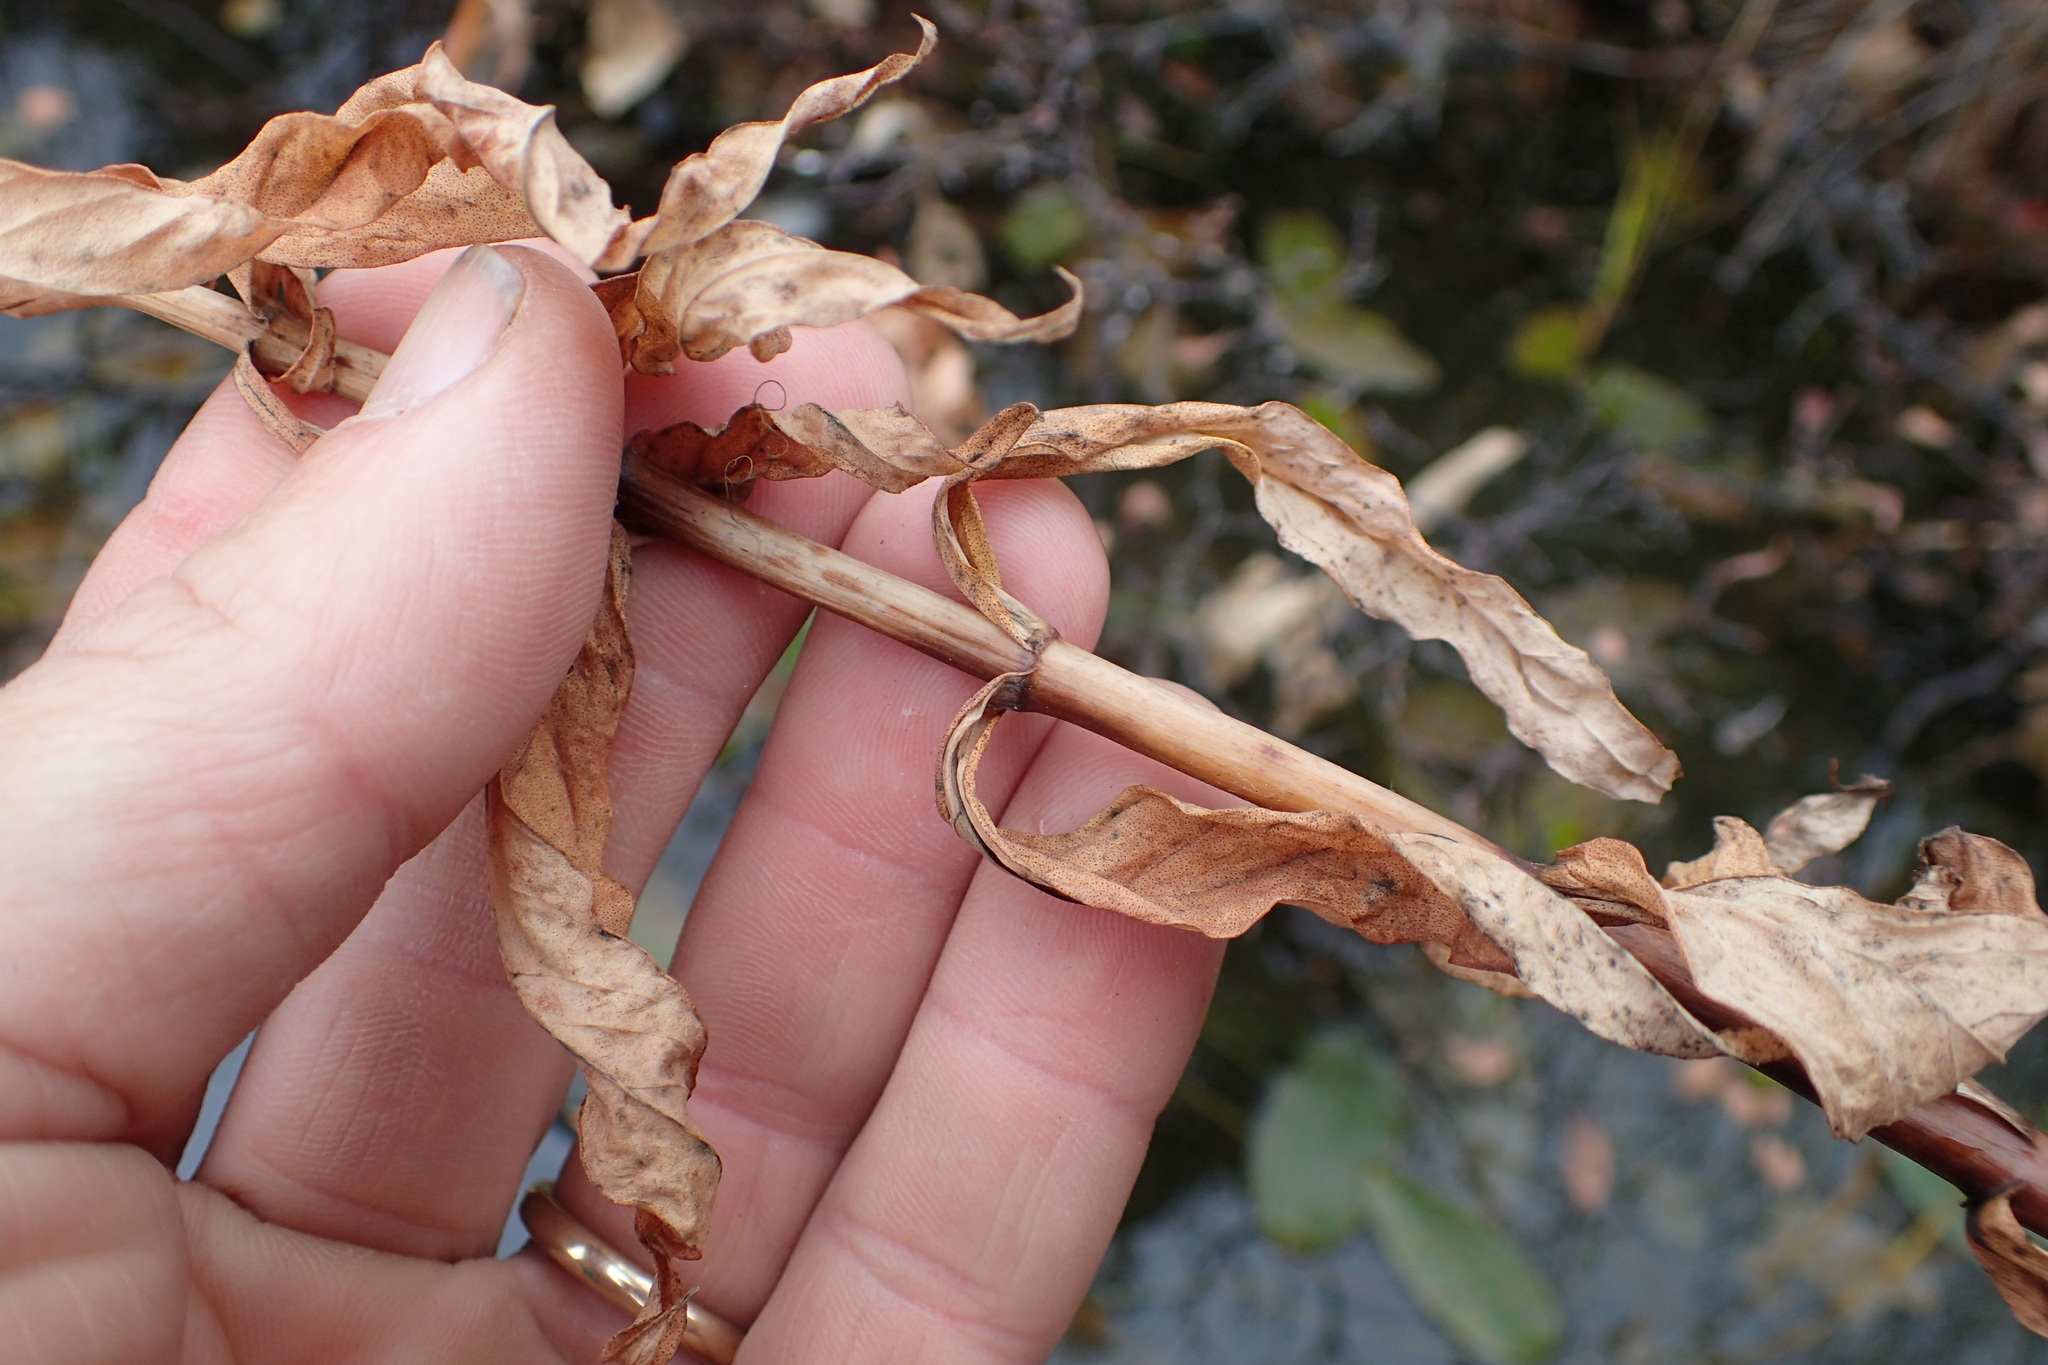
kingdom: Plantae
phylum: Tracheophyta
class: Magnoliopsida
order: Ericales
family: Primulaceae
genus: Lysimachia
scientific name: Lysimachia thyrsiflora
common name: Tufted loosestrife
